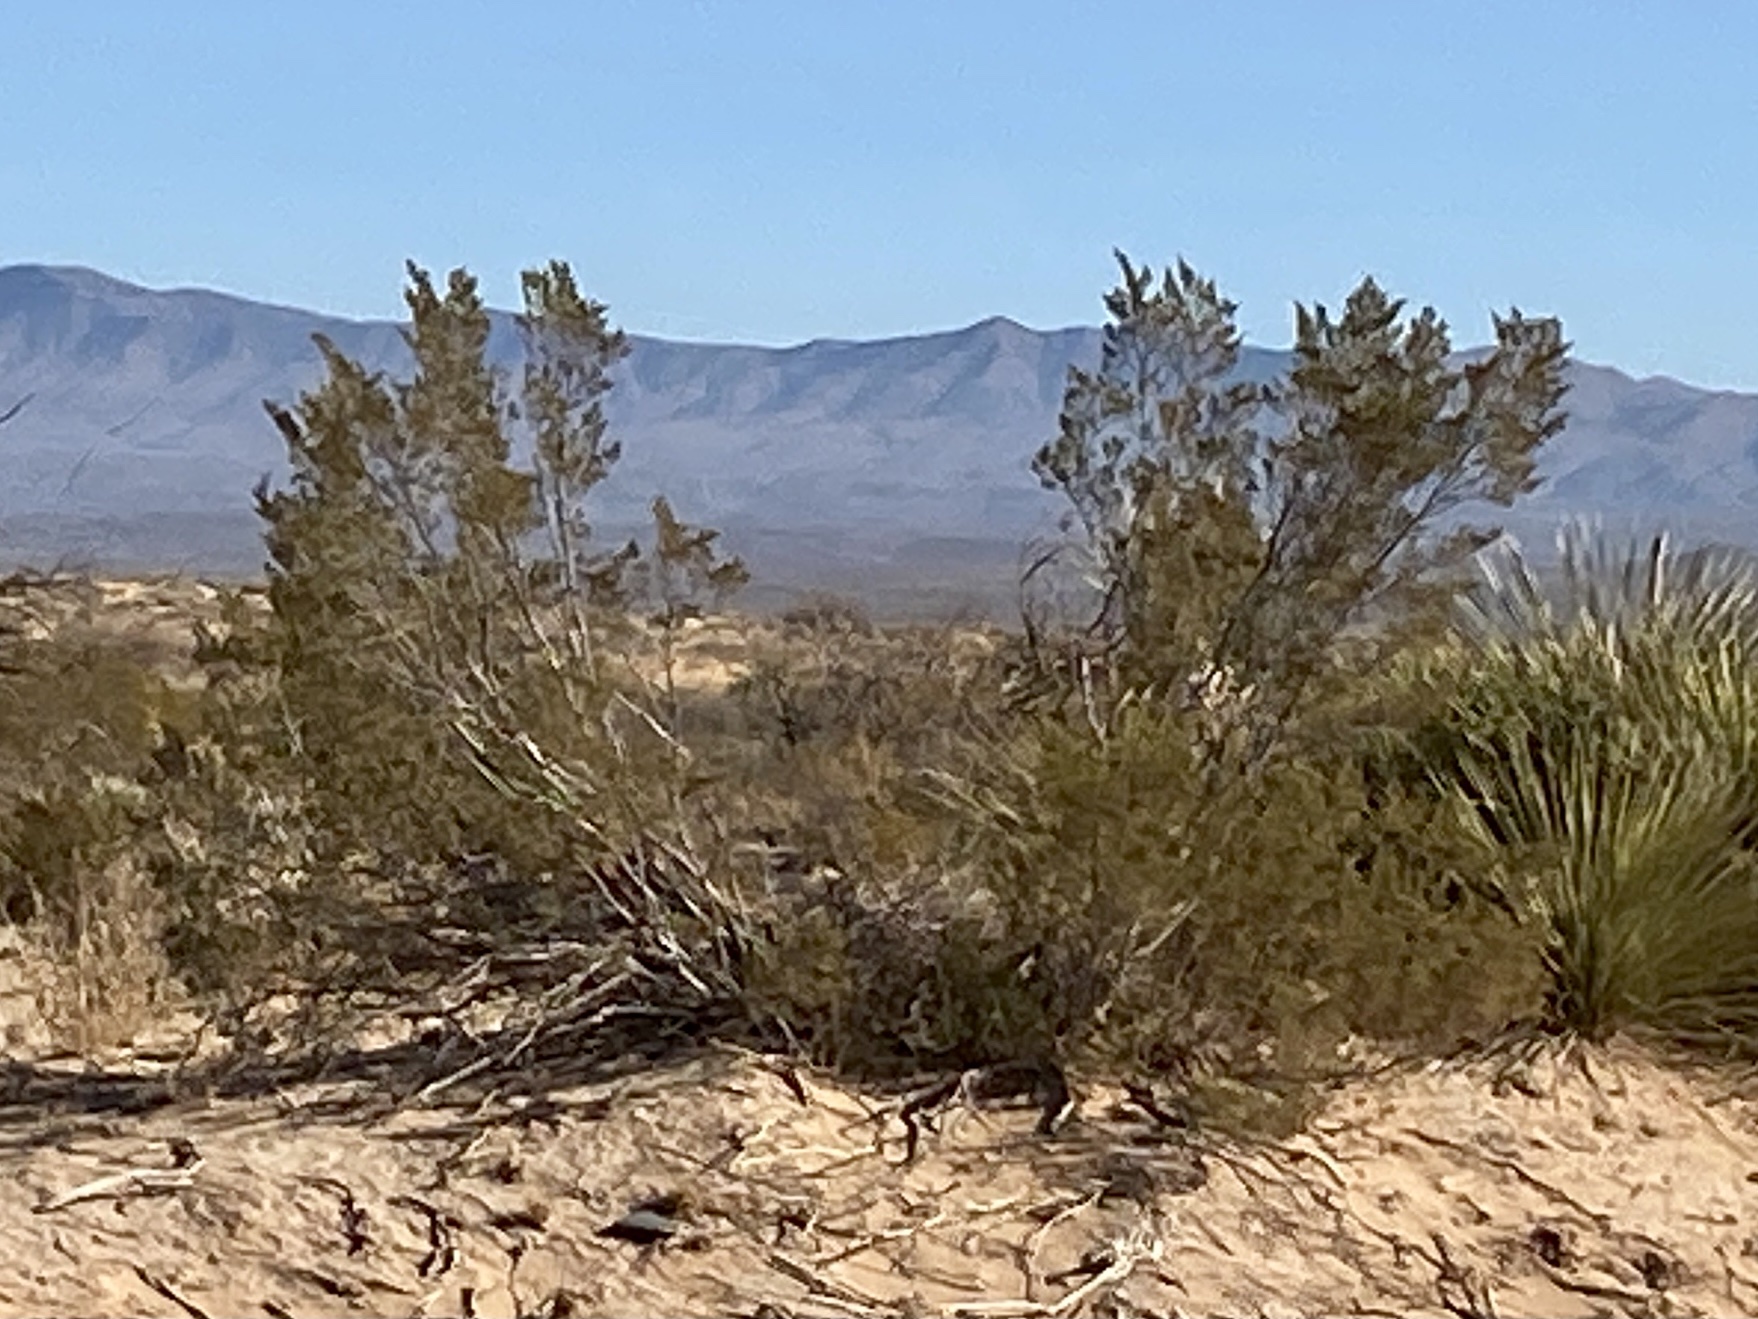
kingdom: Plantae
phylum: Tracheophyta
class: Magnoliopsida
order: Zygophyllales
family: Zygophyllaceae
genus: Larrea
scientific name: Larrea tridentata
